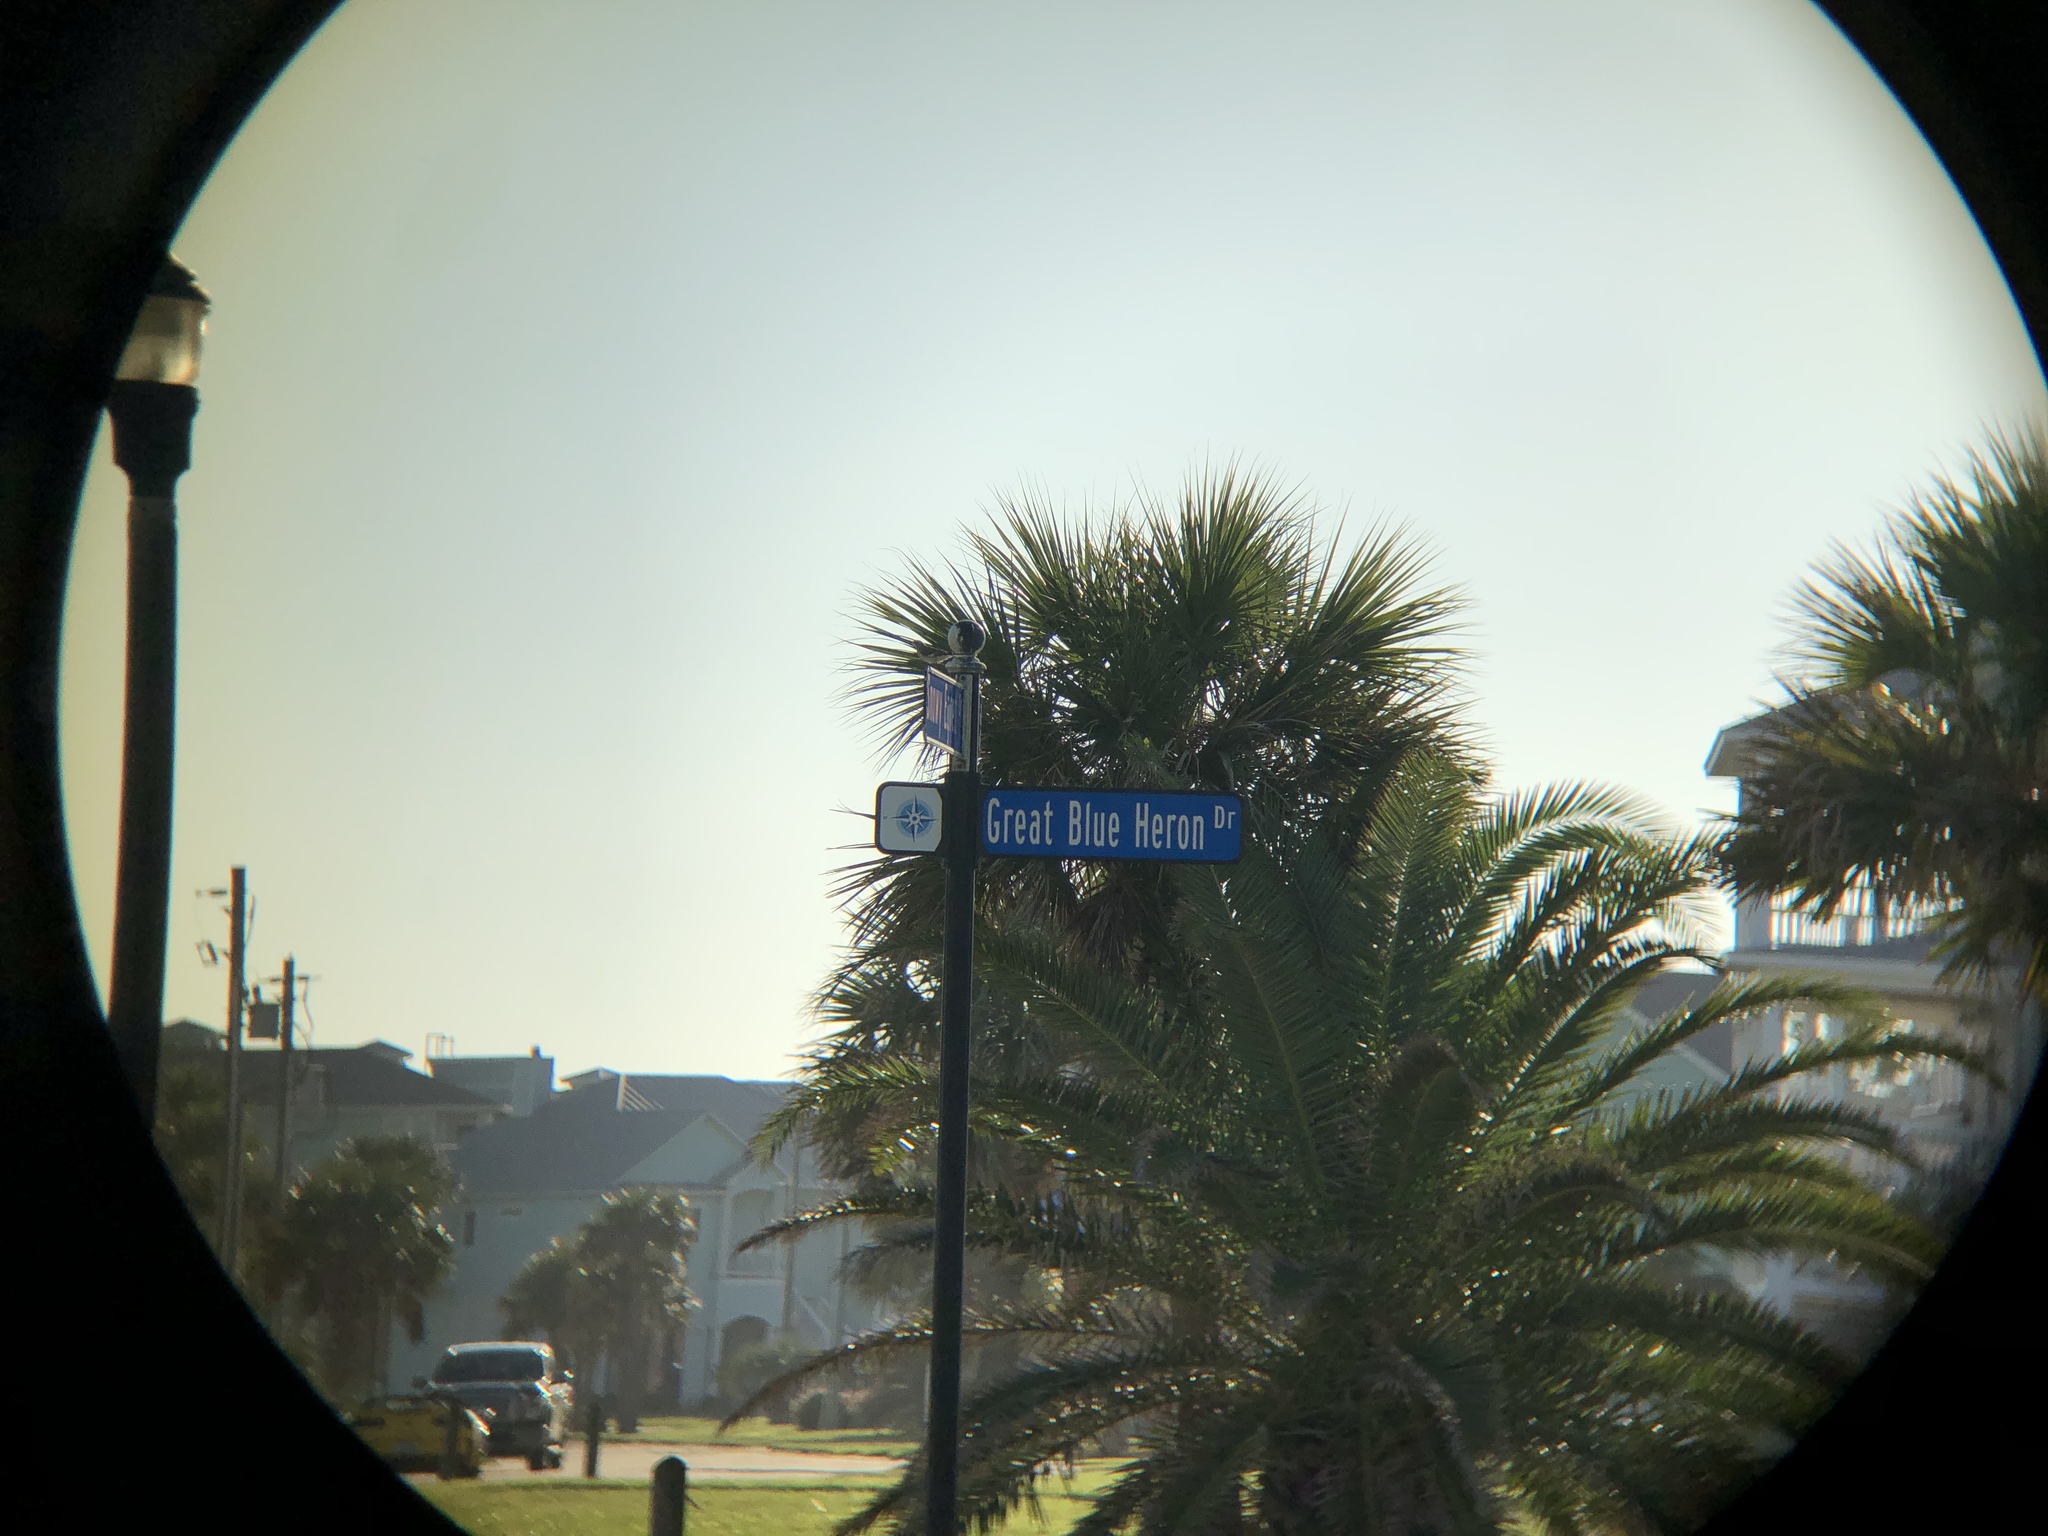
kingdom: Animalia
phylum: Chordata
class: Aves
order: Passeriformes
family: Mimidae
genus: Mimus
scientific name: Mimus polyglottos
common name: Northern mockingbird
